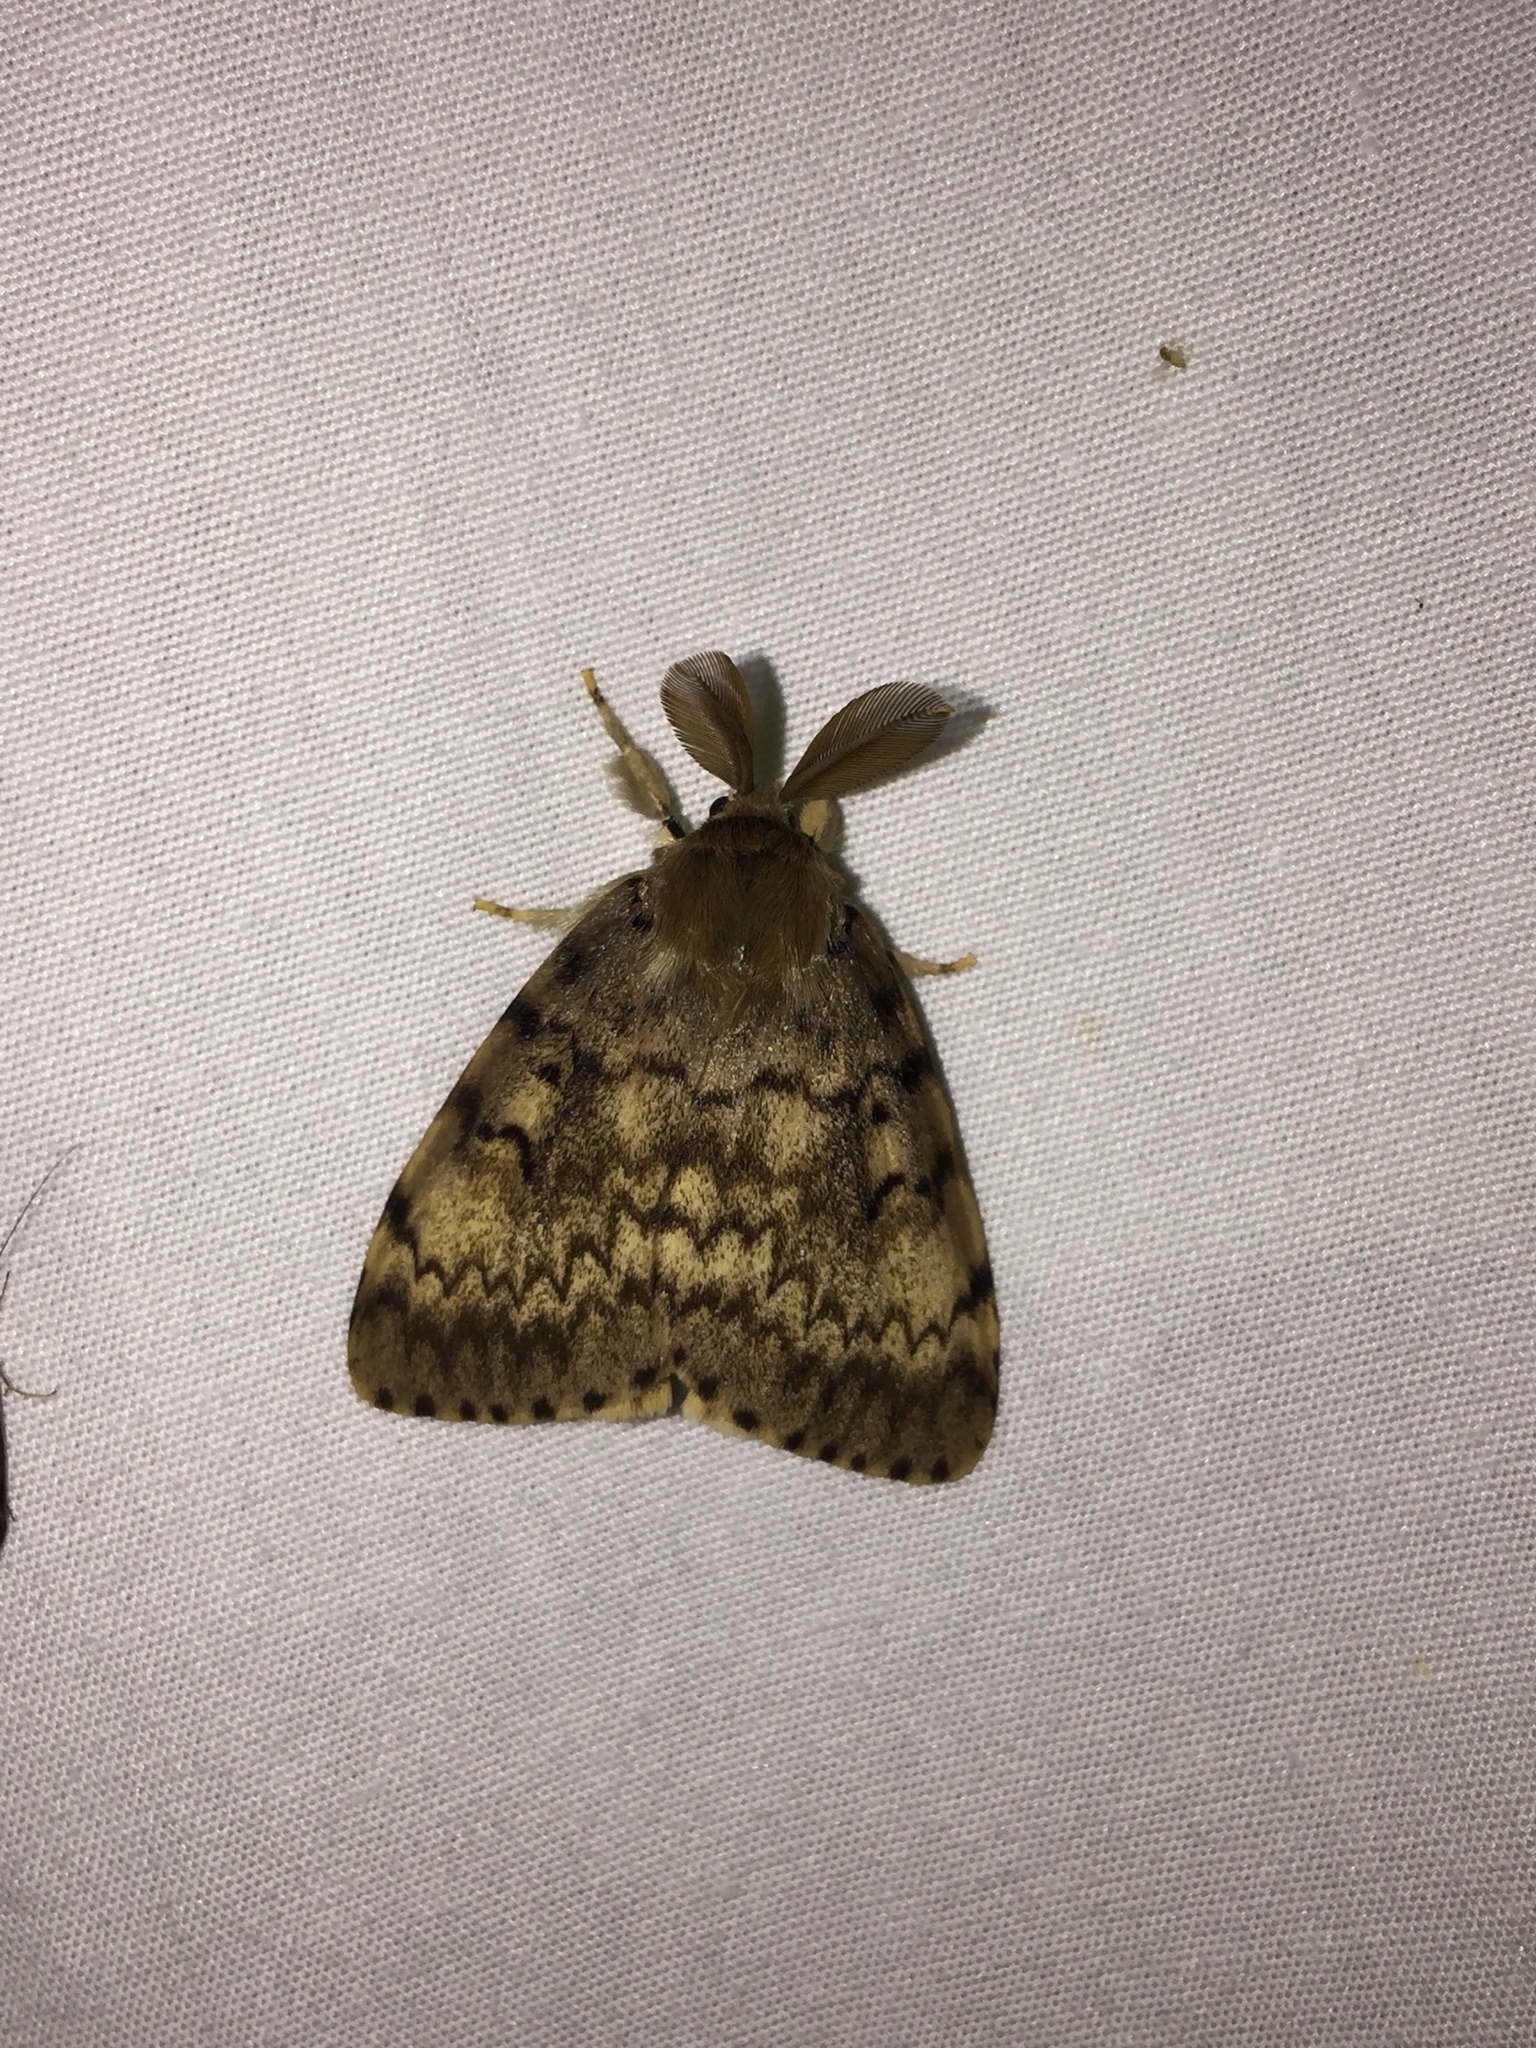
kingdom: Animalia
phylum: Arthropoda
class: Insecta
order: Lepidoptera
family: Erebidae
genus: Lymantria
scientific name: Lymantria dispar
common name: Gypsy moth
